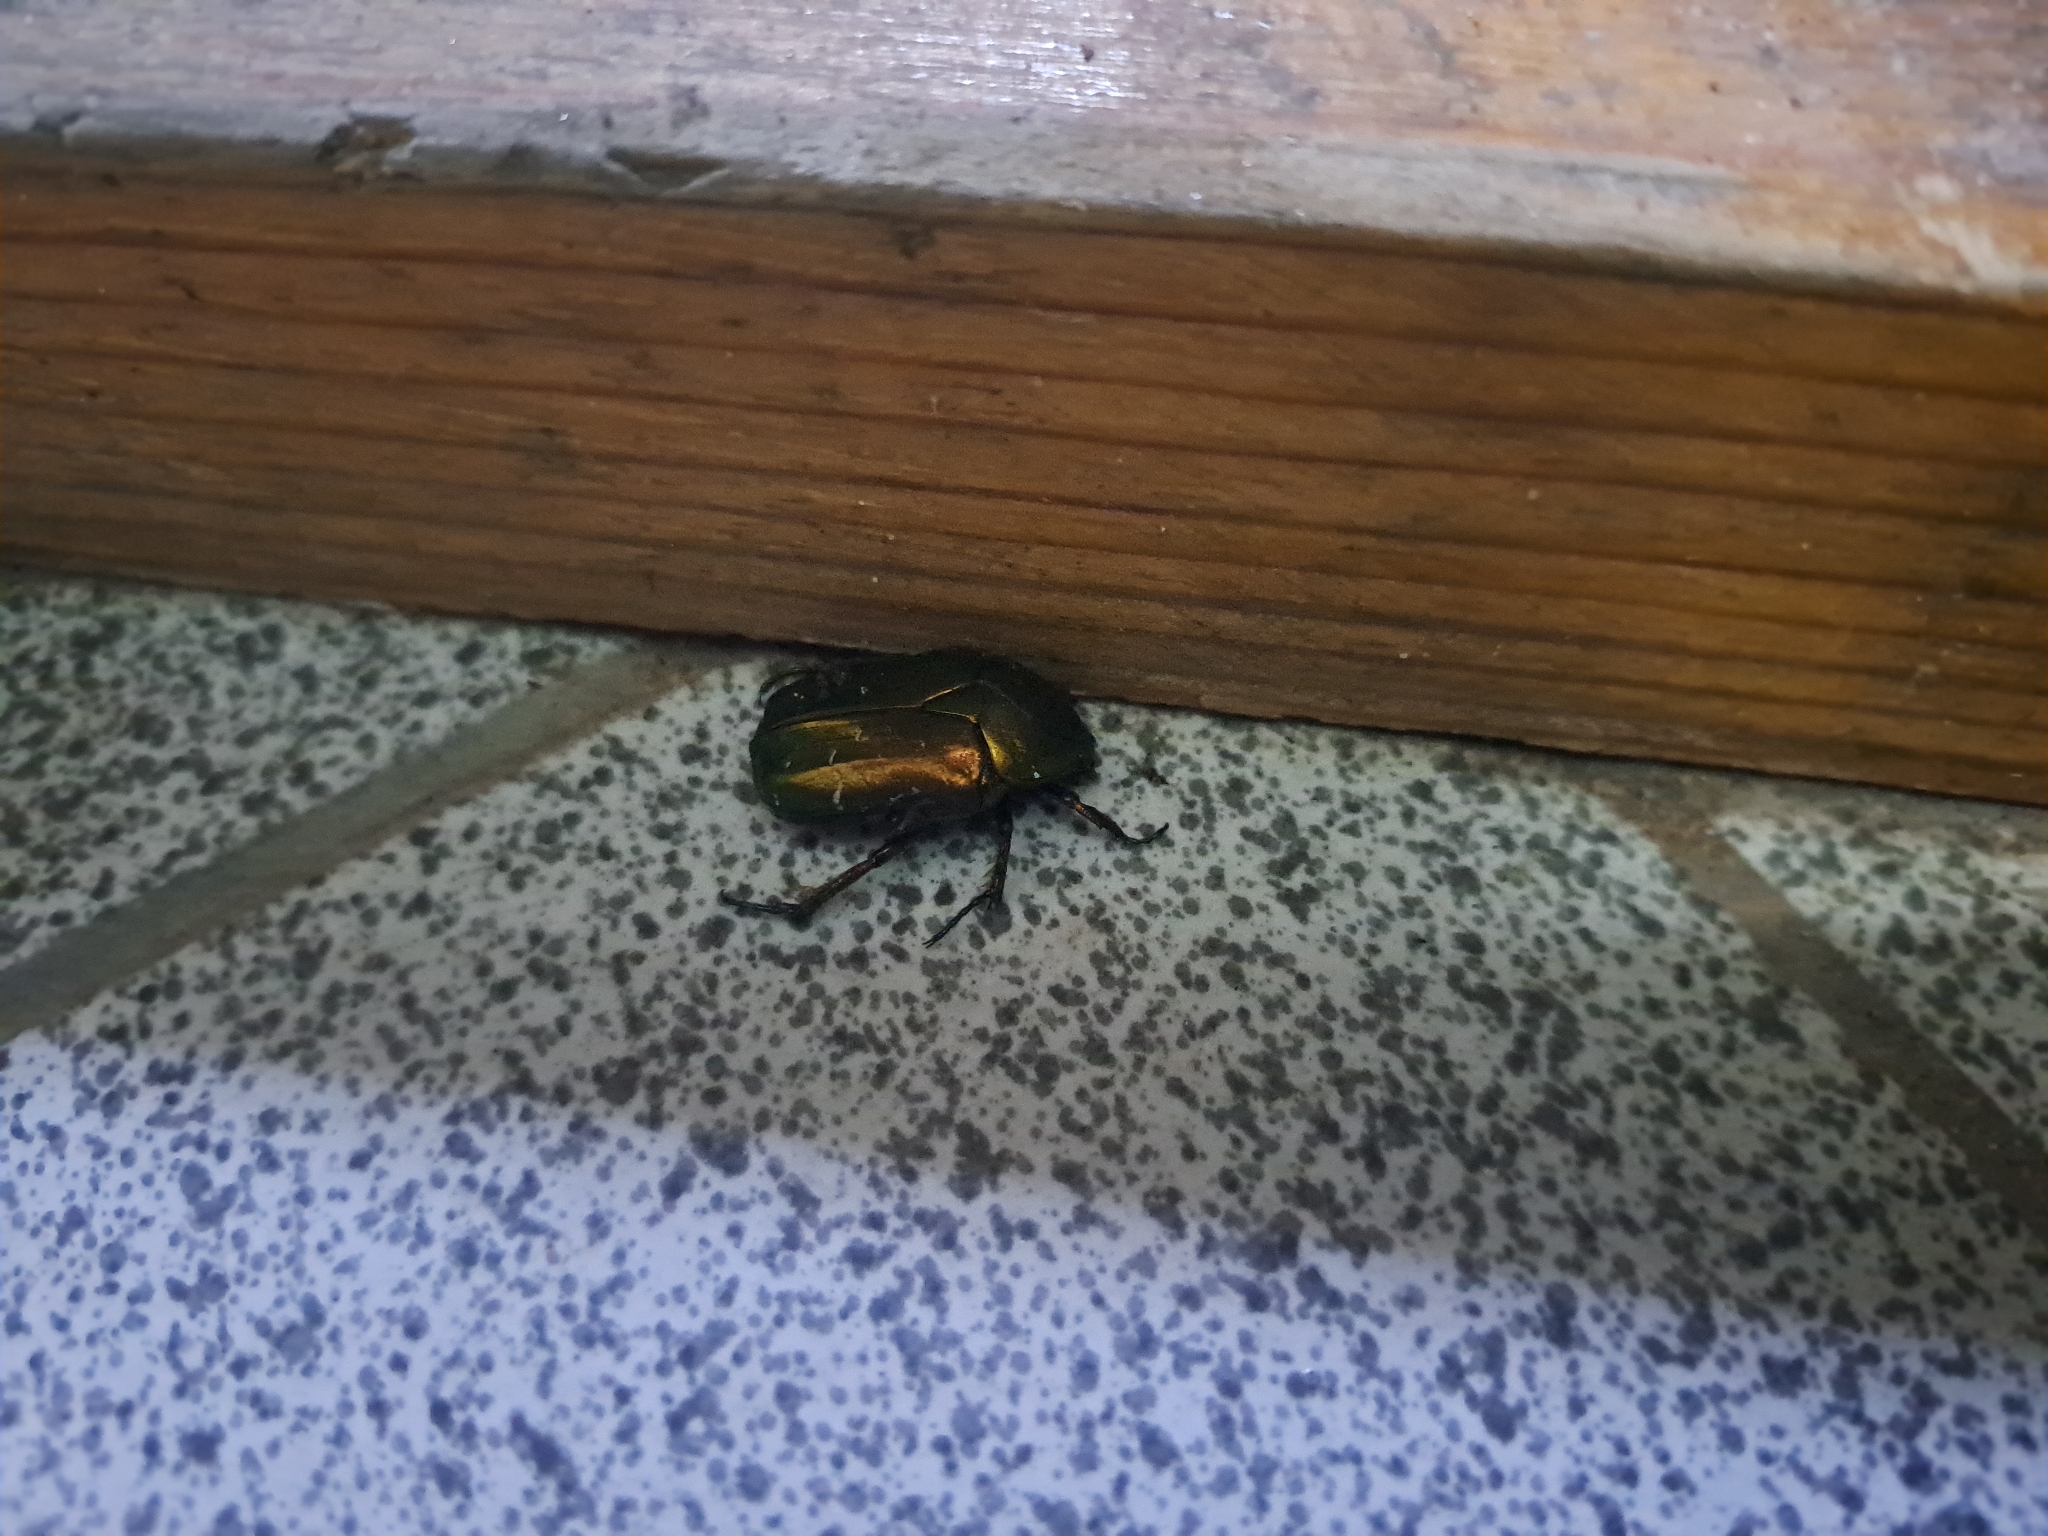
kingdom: Animalia
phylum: Arthropoda
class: Insecta
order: Coleoptera
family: Scarabaeidae
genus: Cetonia
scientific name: Cetonia aurata
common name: Rose chafer
